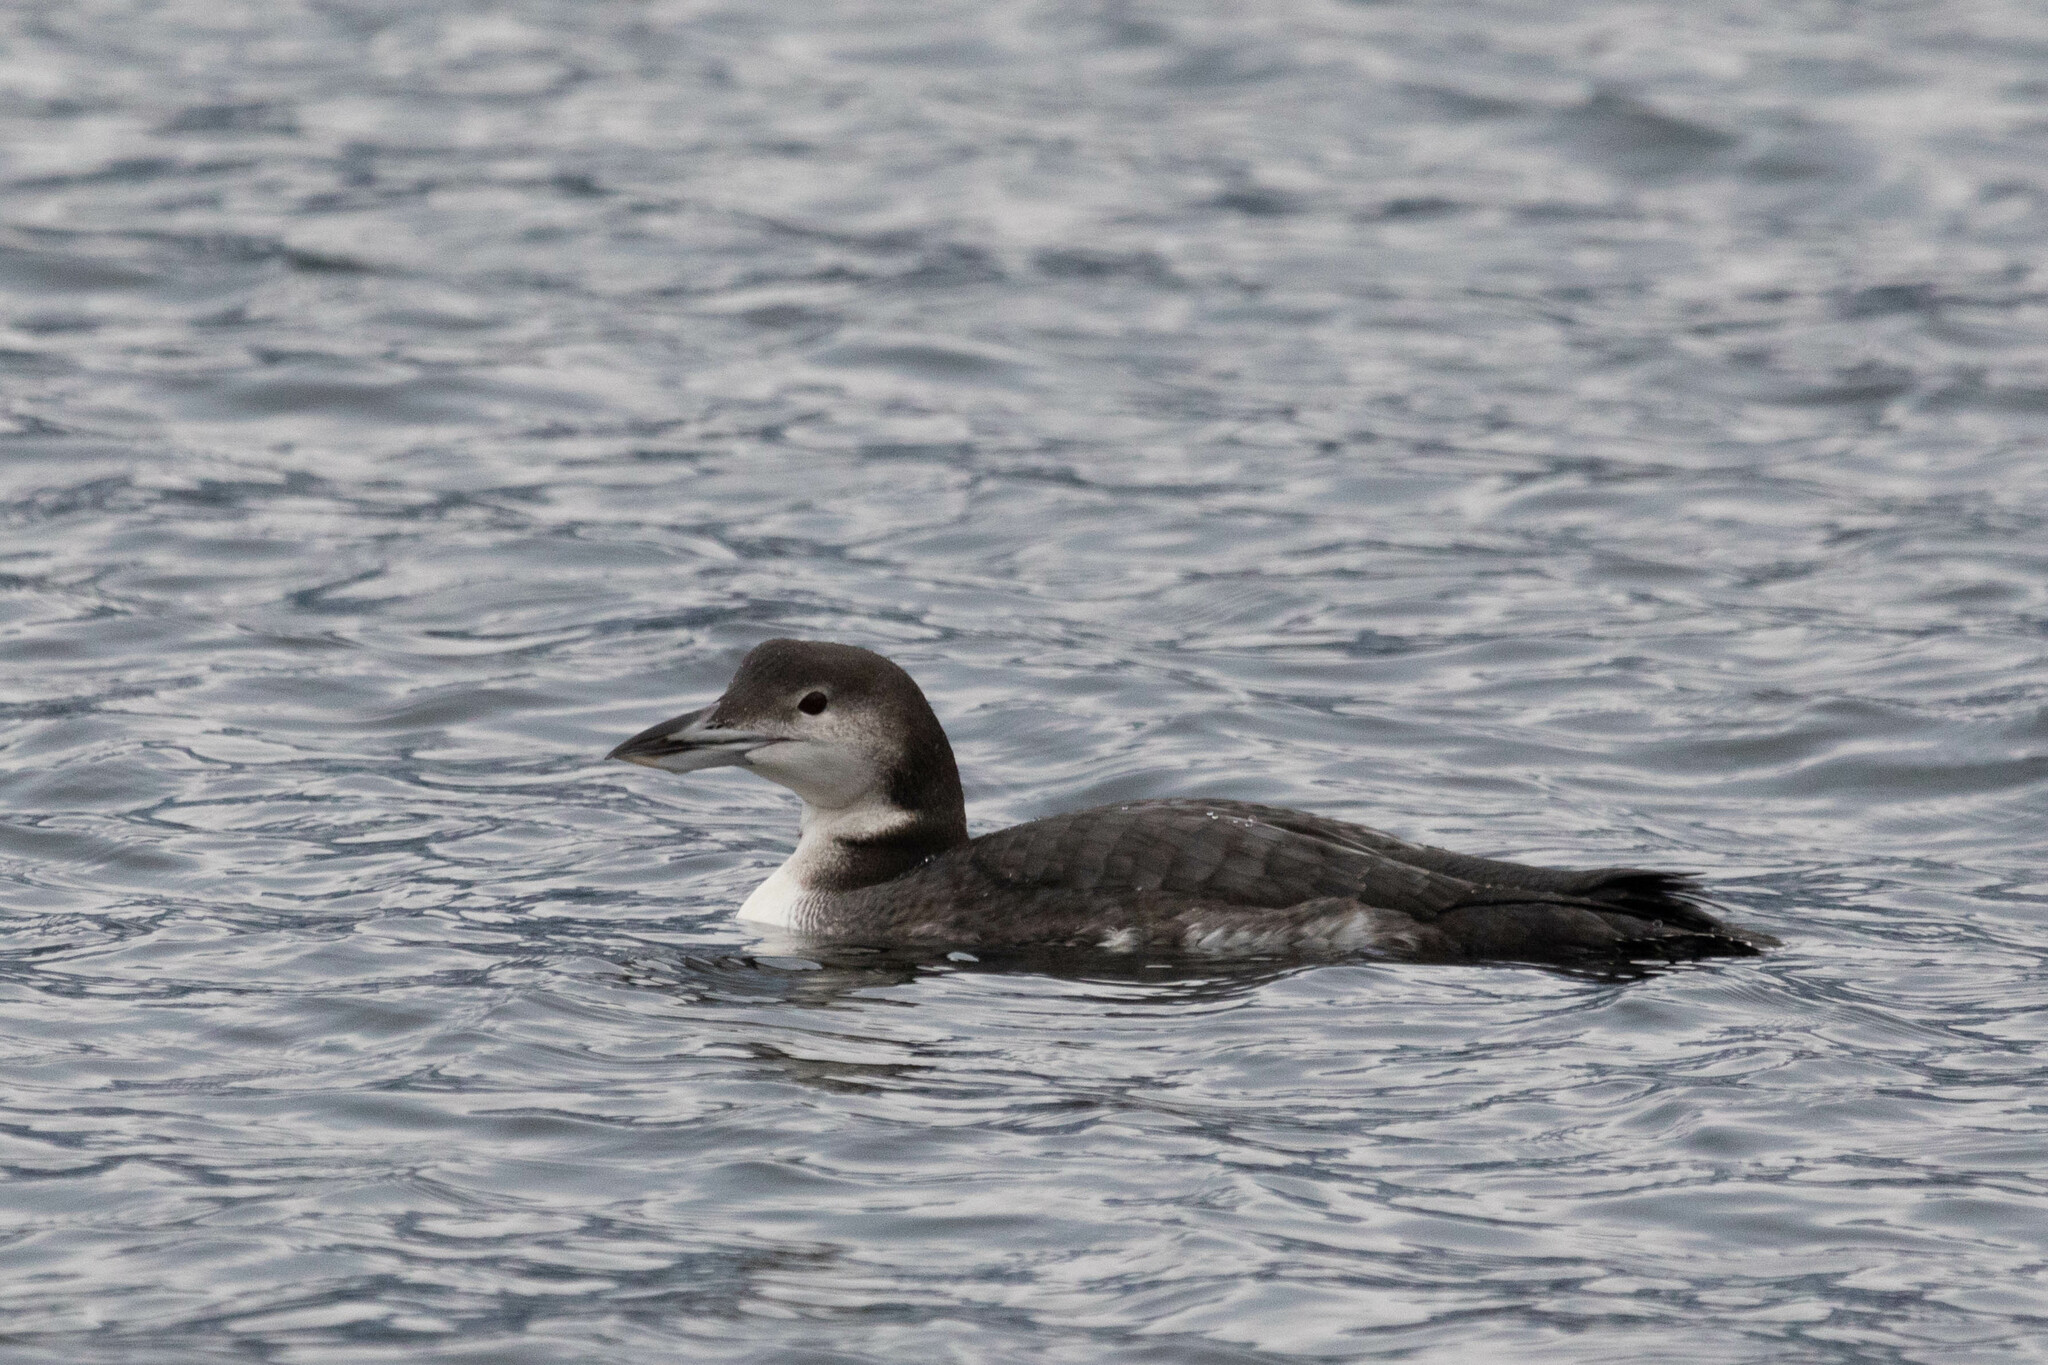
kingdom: Animalia
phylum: Chordata
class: Aves
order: Gaviiformes
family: Gaviidae
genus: Gavia
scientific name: Gavia immer
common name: Common loon
